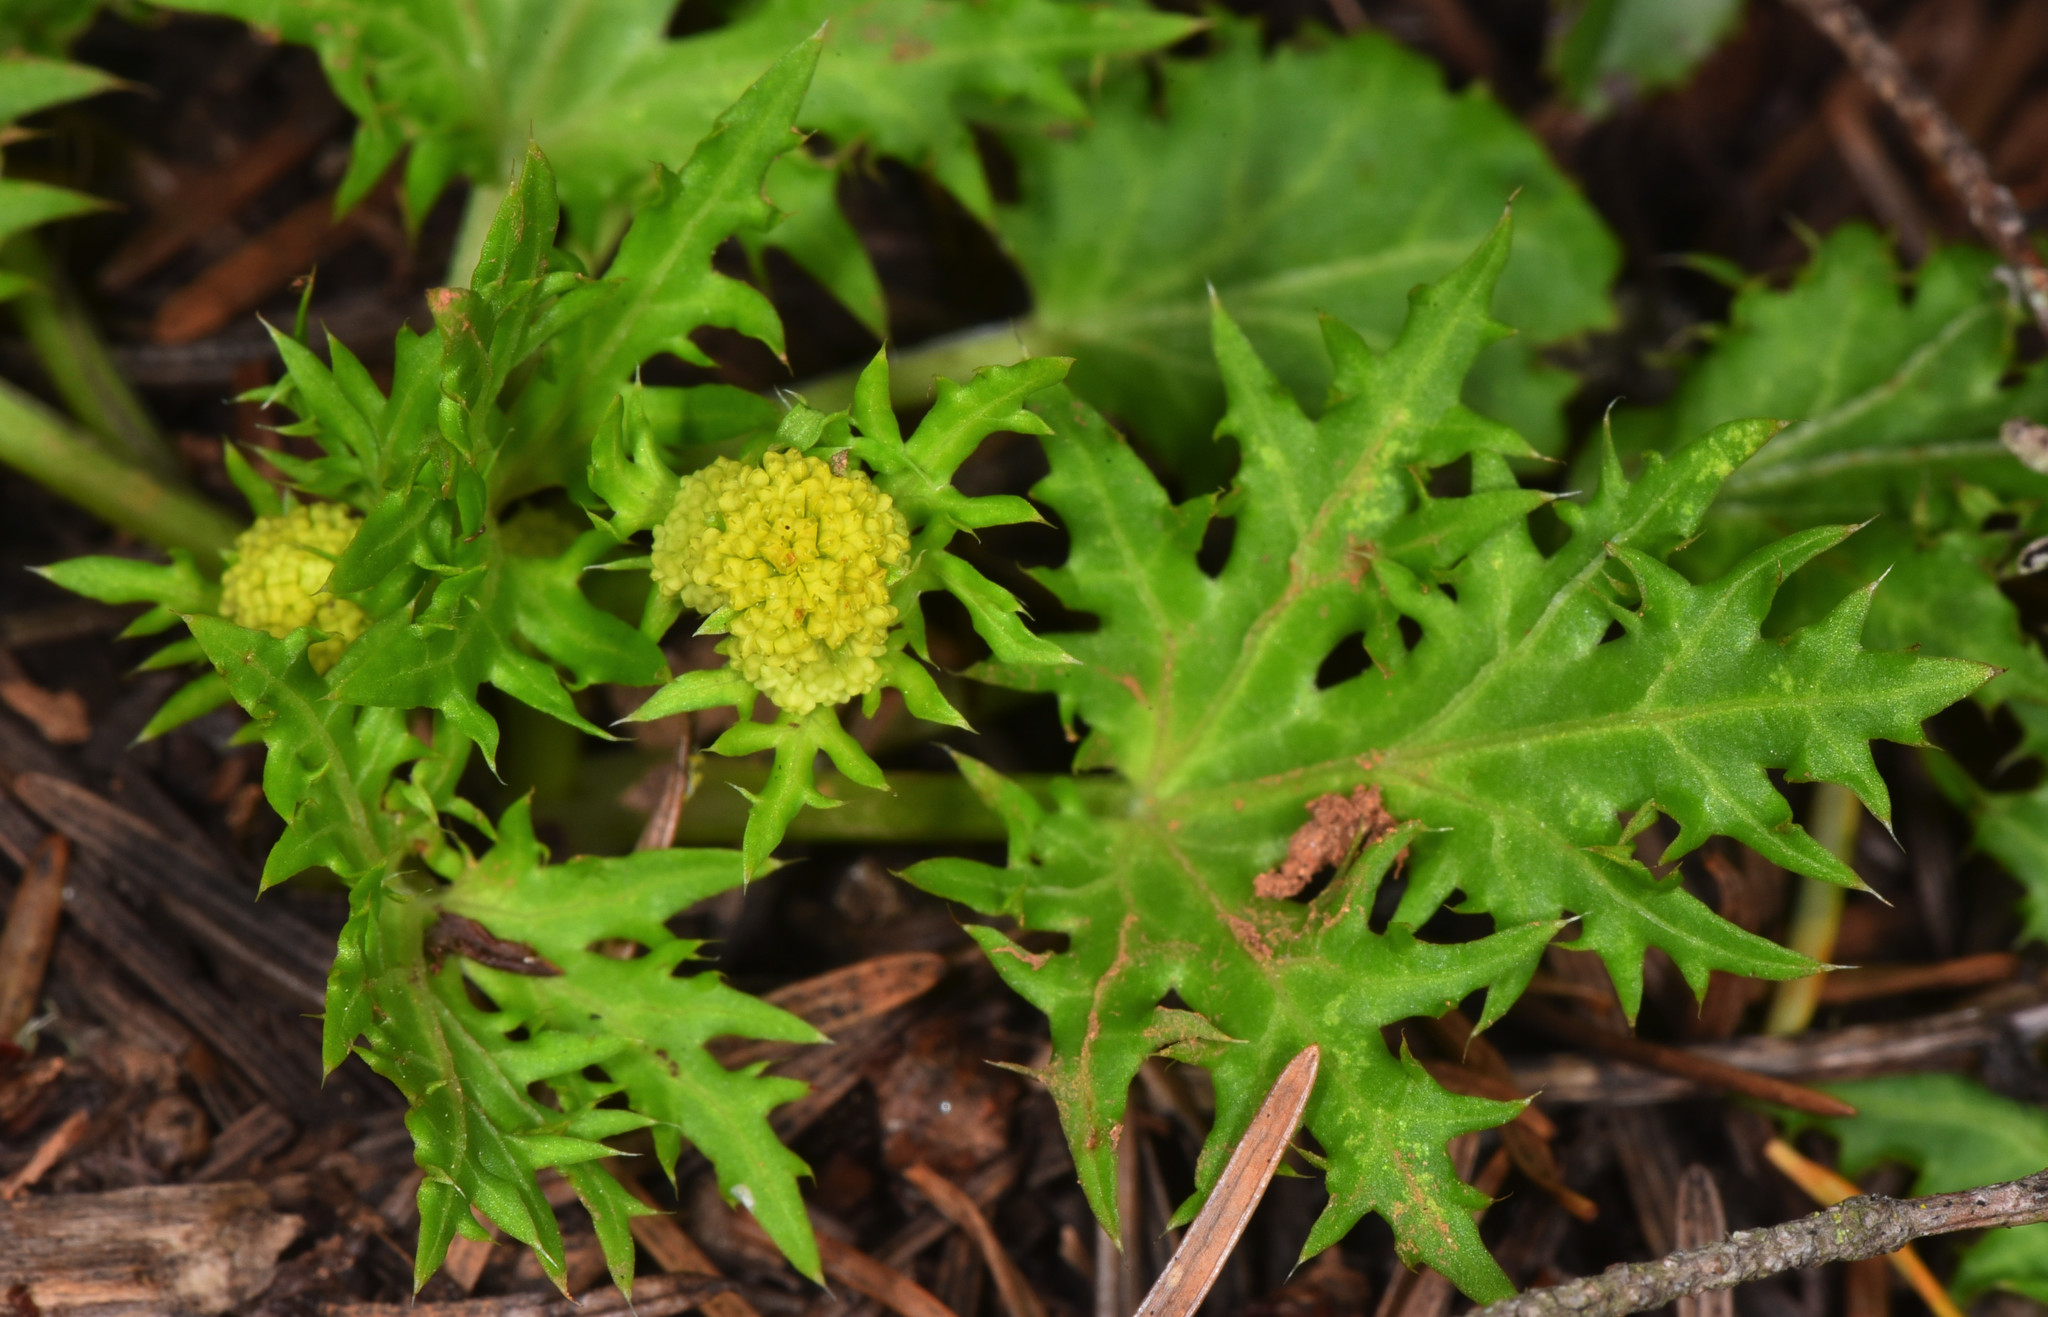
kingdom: Plantae
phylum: Tracheophyta
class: Magnoliopsida
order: Apiales
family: Apiaceae
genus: Sanicula
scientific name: Sanicula laciniata
